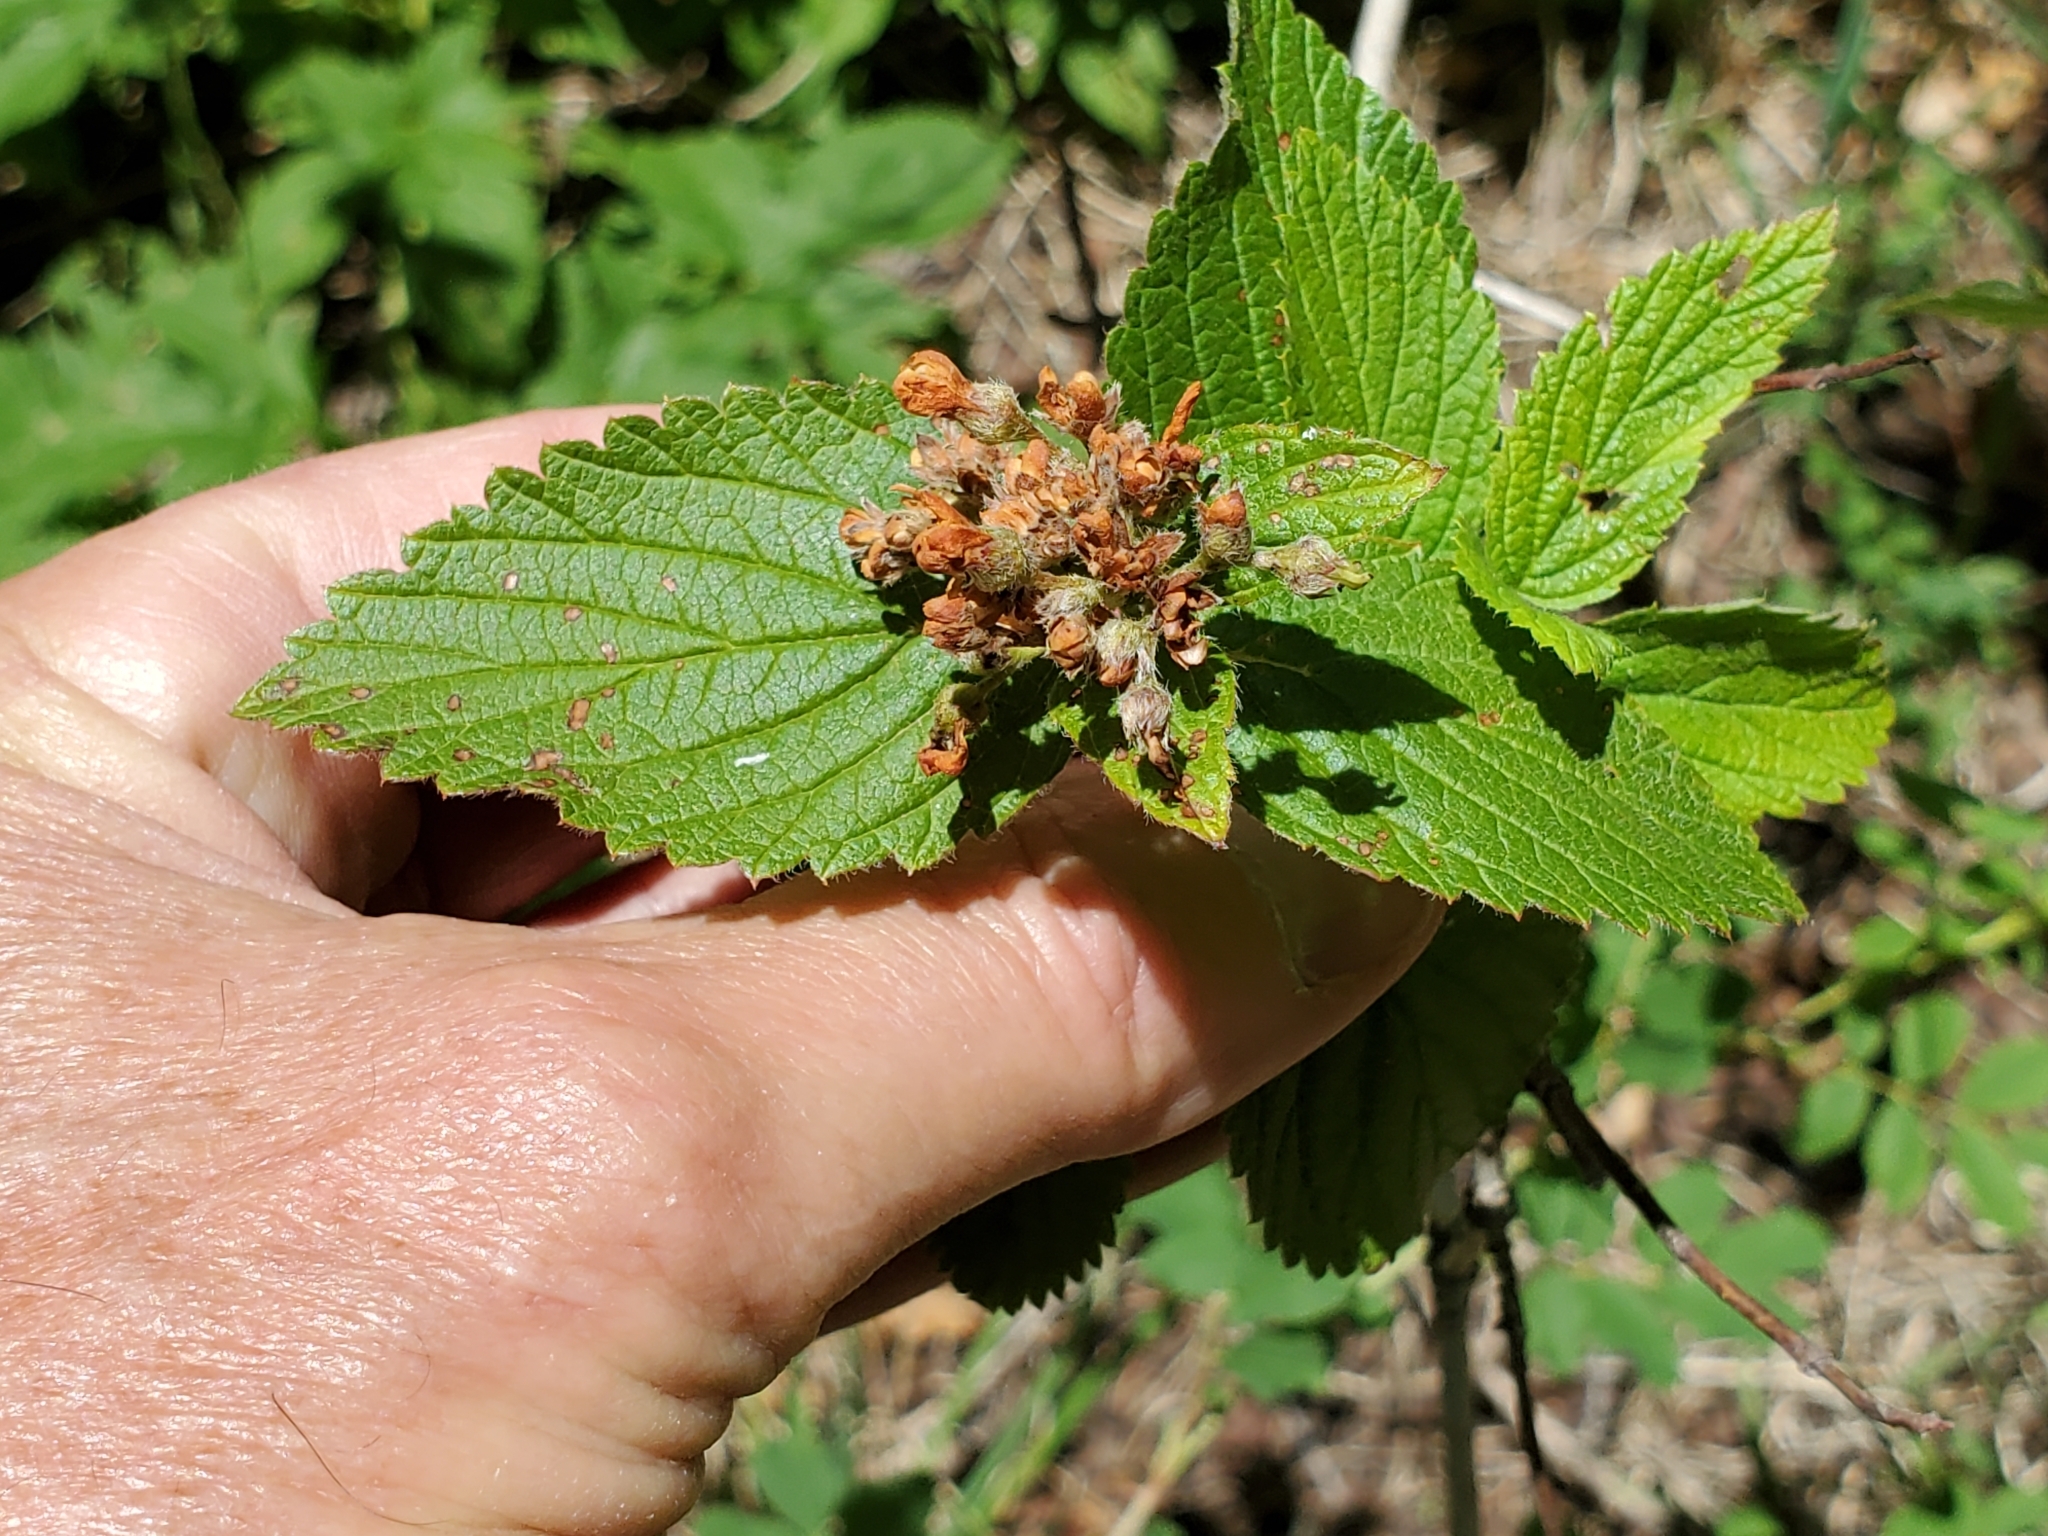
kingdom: Plantae
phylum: Tracheophyta
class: Magnoliopsida
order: Cornales
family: Hydrangeaceae
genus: Jamesia
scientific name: Jamesia americana
